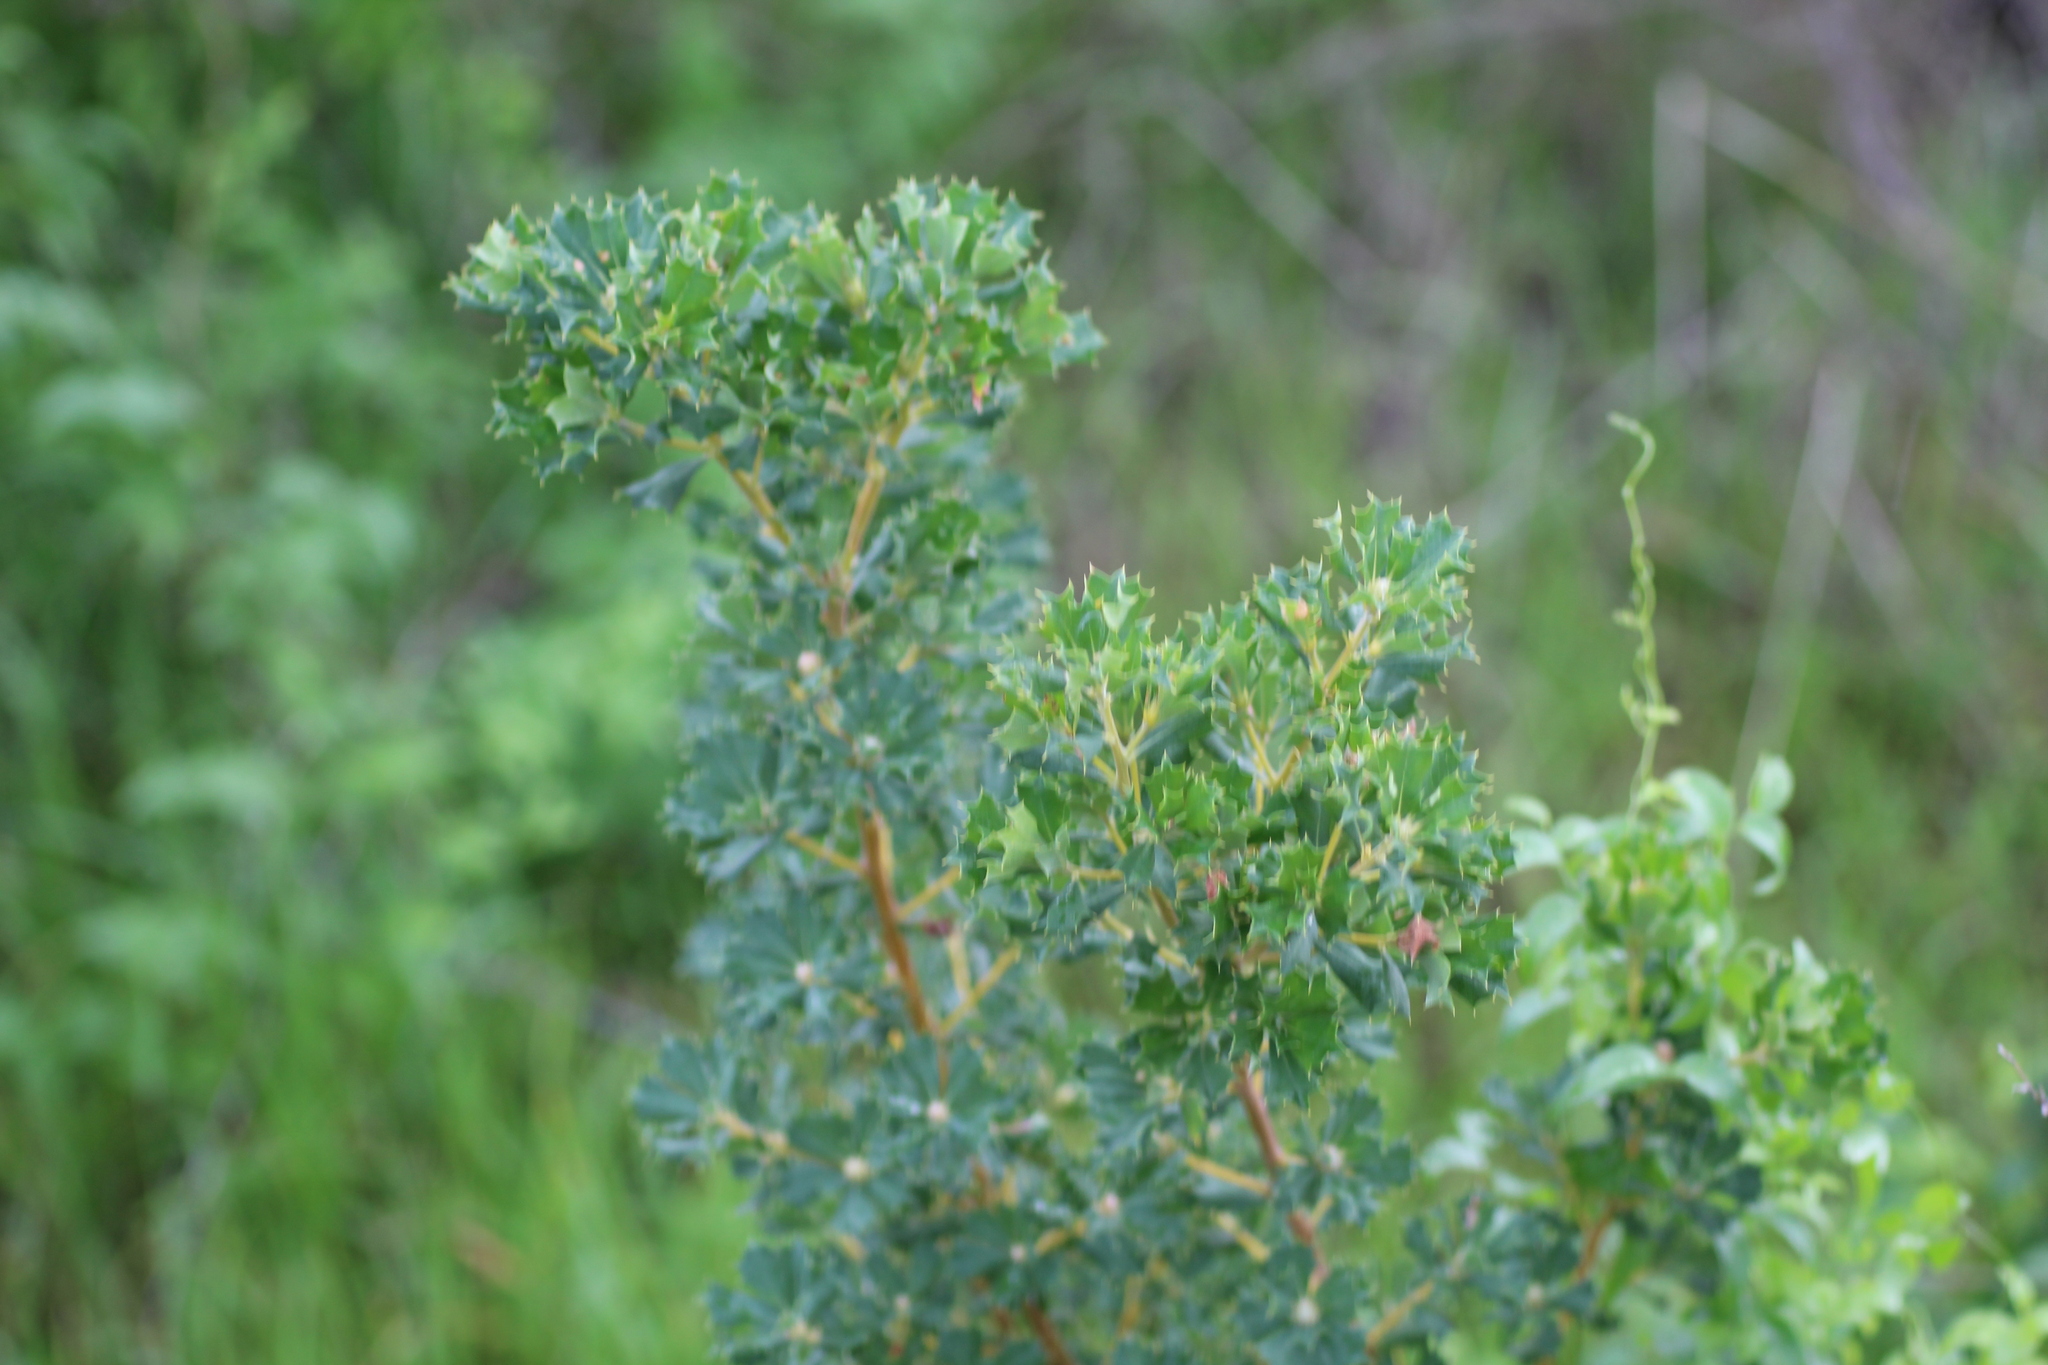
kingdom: Plantae
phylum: Tracheophyta
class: Magnoliopsida
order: Proteales
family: Proteaceae
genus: Banksia
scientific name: Banksia sessilis
